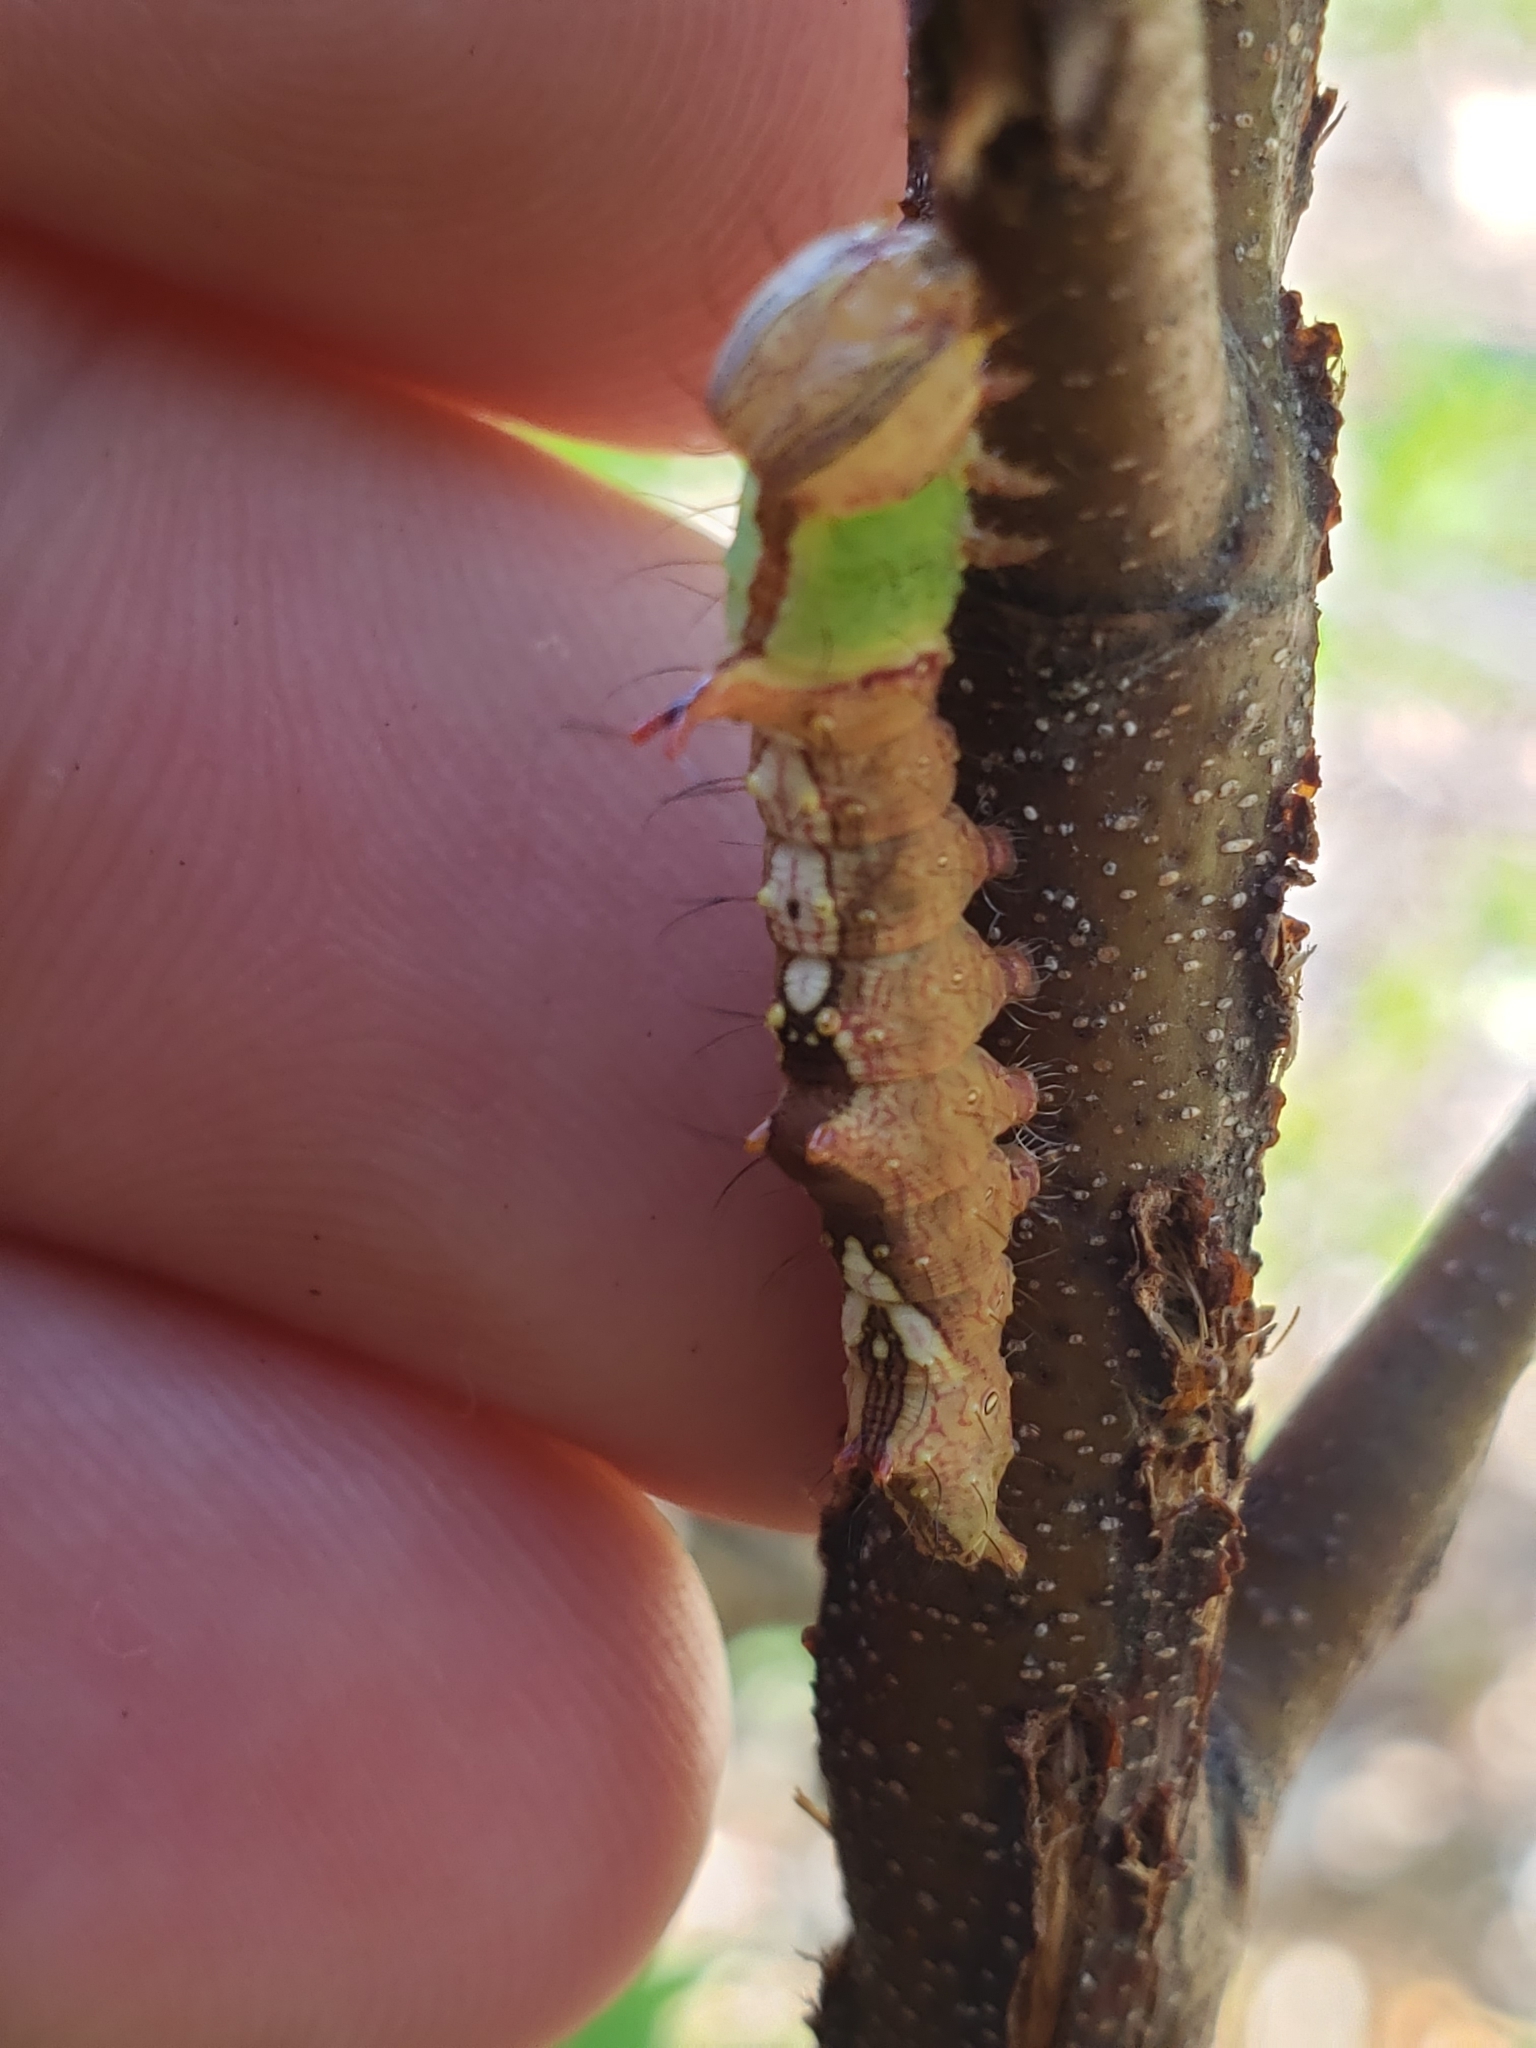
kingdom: Animalia
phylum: Arthropoda
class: Insecta
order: Lepidoptera
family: Notodontidae
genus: Schizura
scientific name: Schizura ipomaeae
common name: Morning-glory prominent
